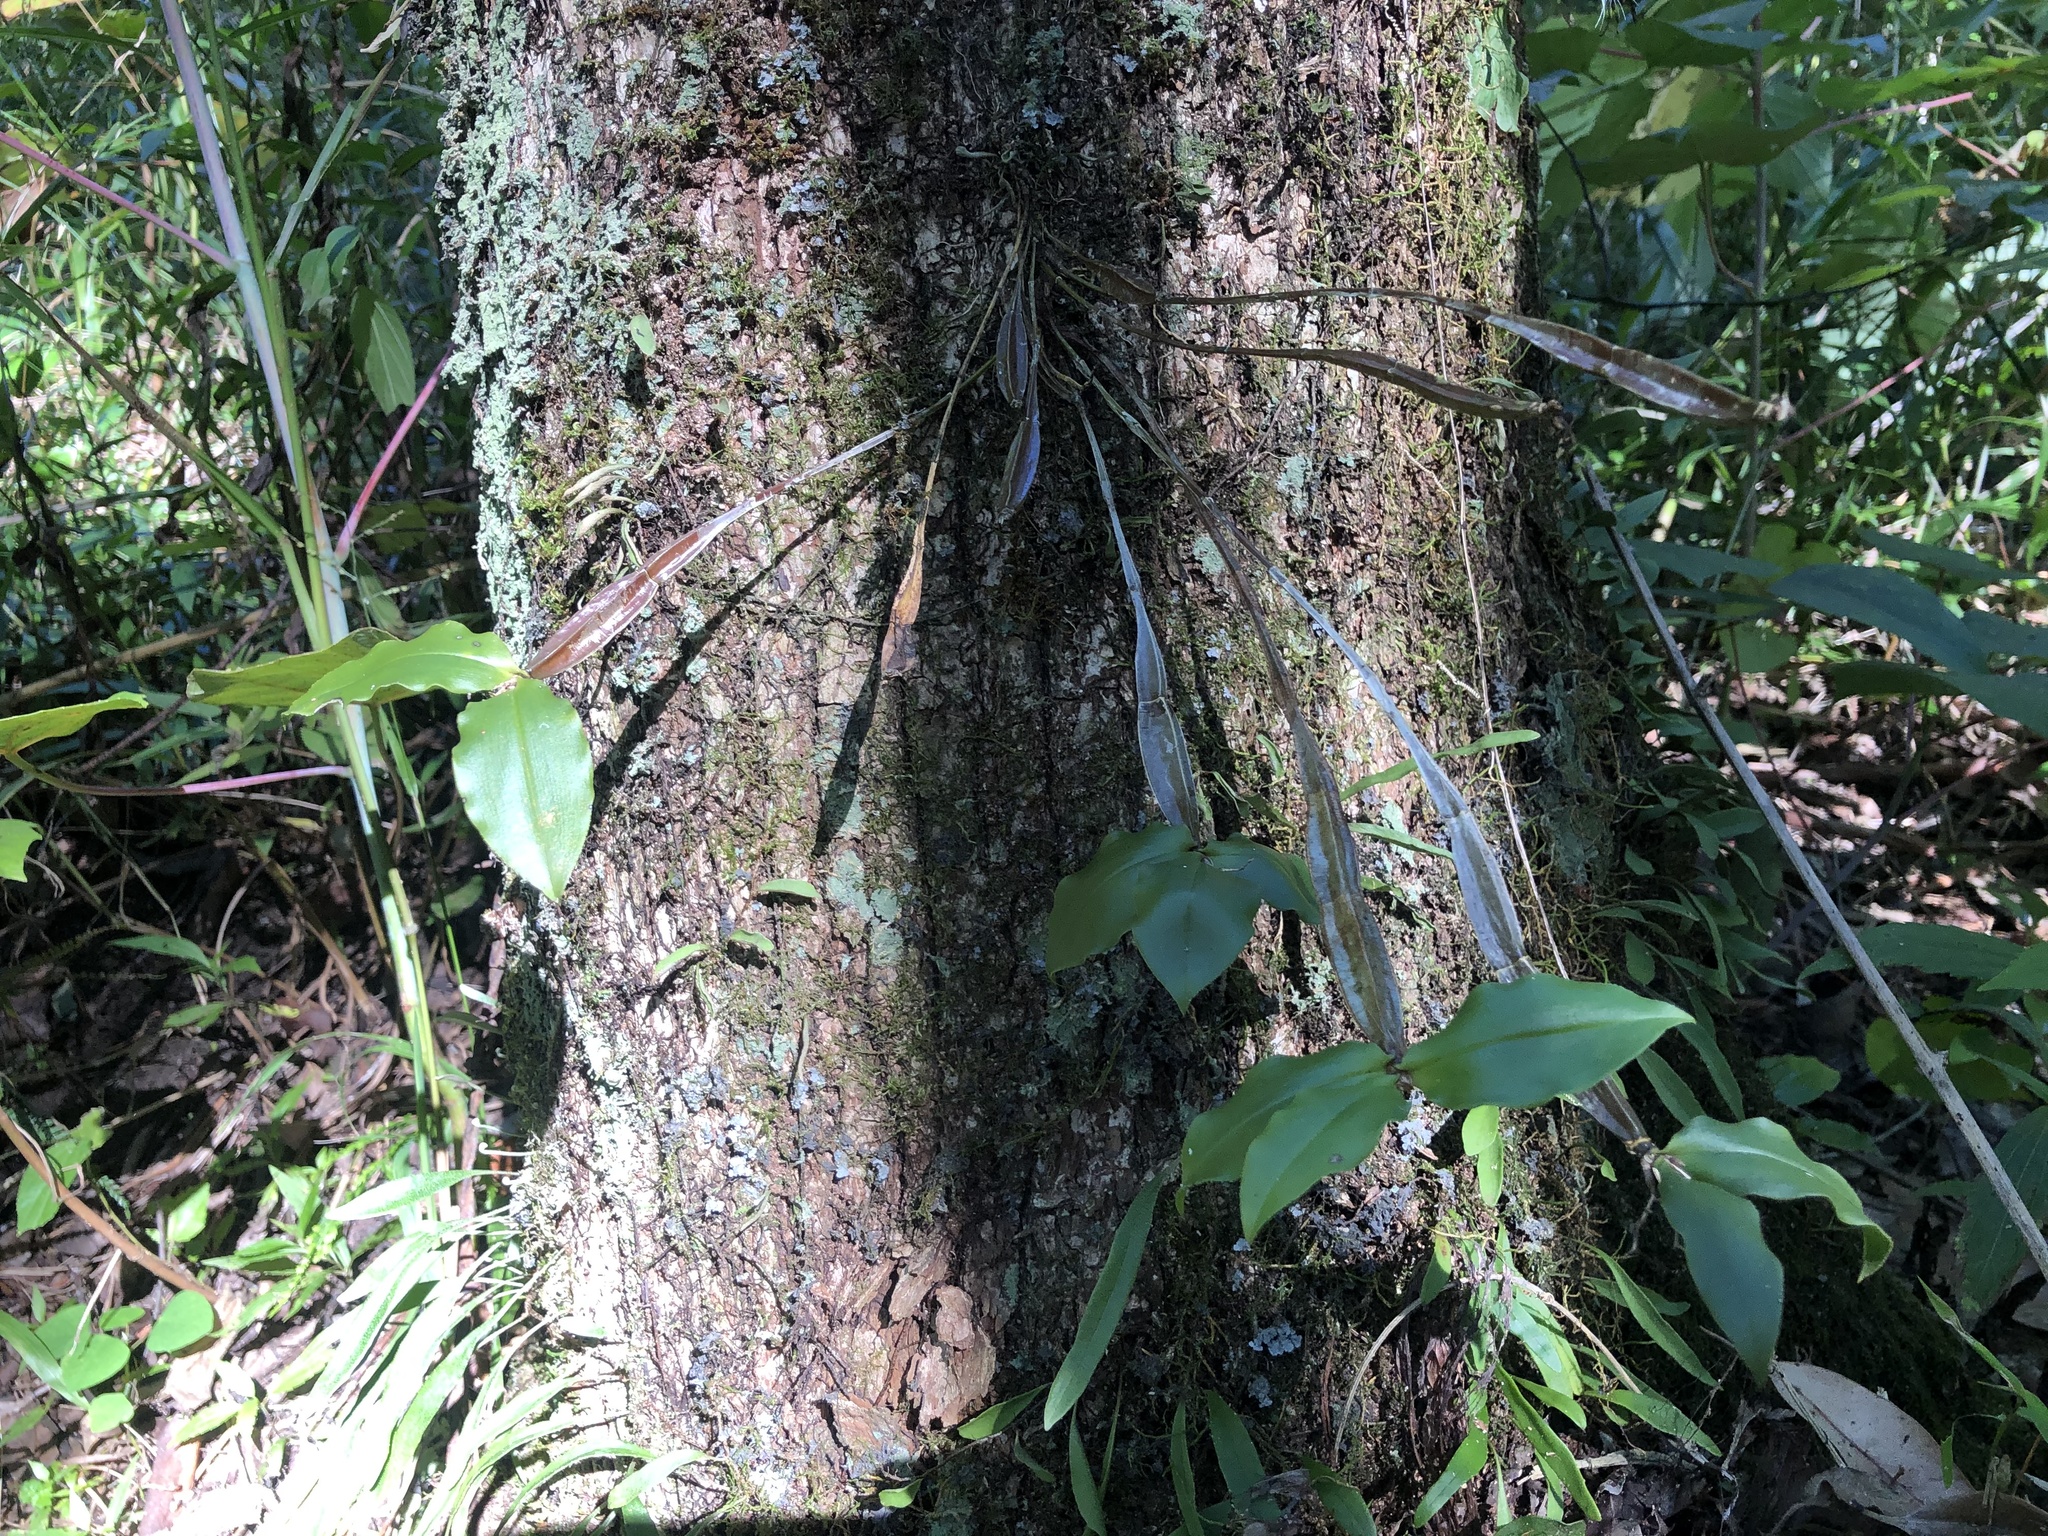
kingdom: Plantae
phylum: Tracheophyta
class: Liliopsida
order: Asparagales
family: Orchidaceae
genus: Dendrobium
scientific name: Dendrobium tetragonum
